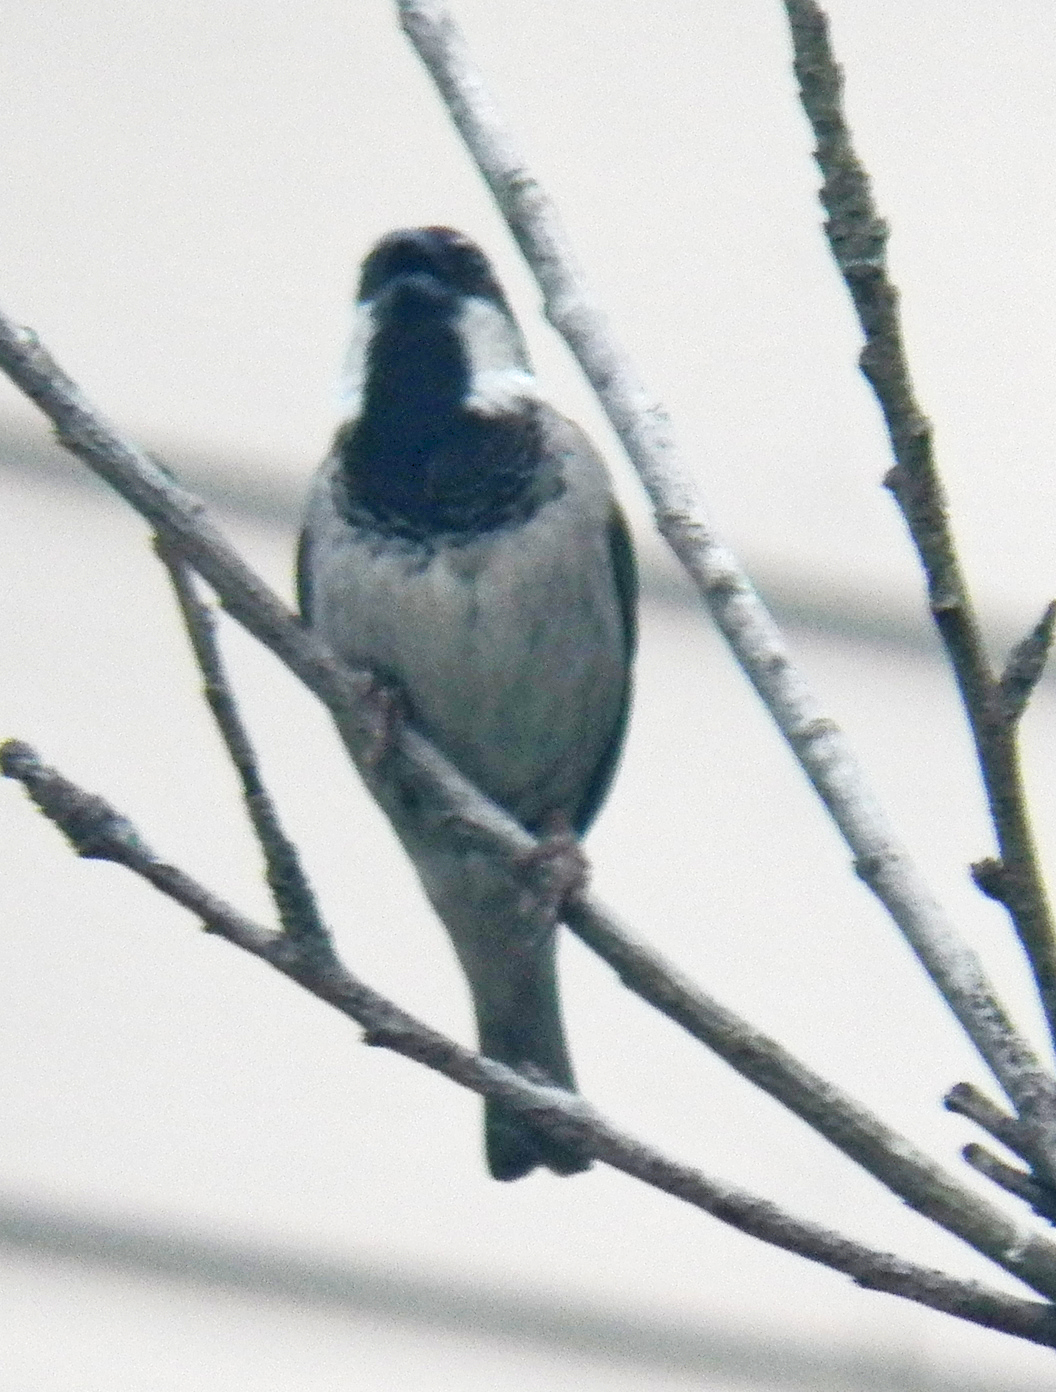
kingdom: Animalia
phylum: Chordata
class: Aves
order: Passeriformes
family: Passeridae
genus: Passer
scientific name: Passer domesticus
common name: House sparrow
